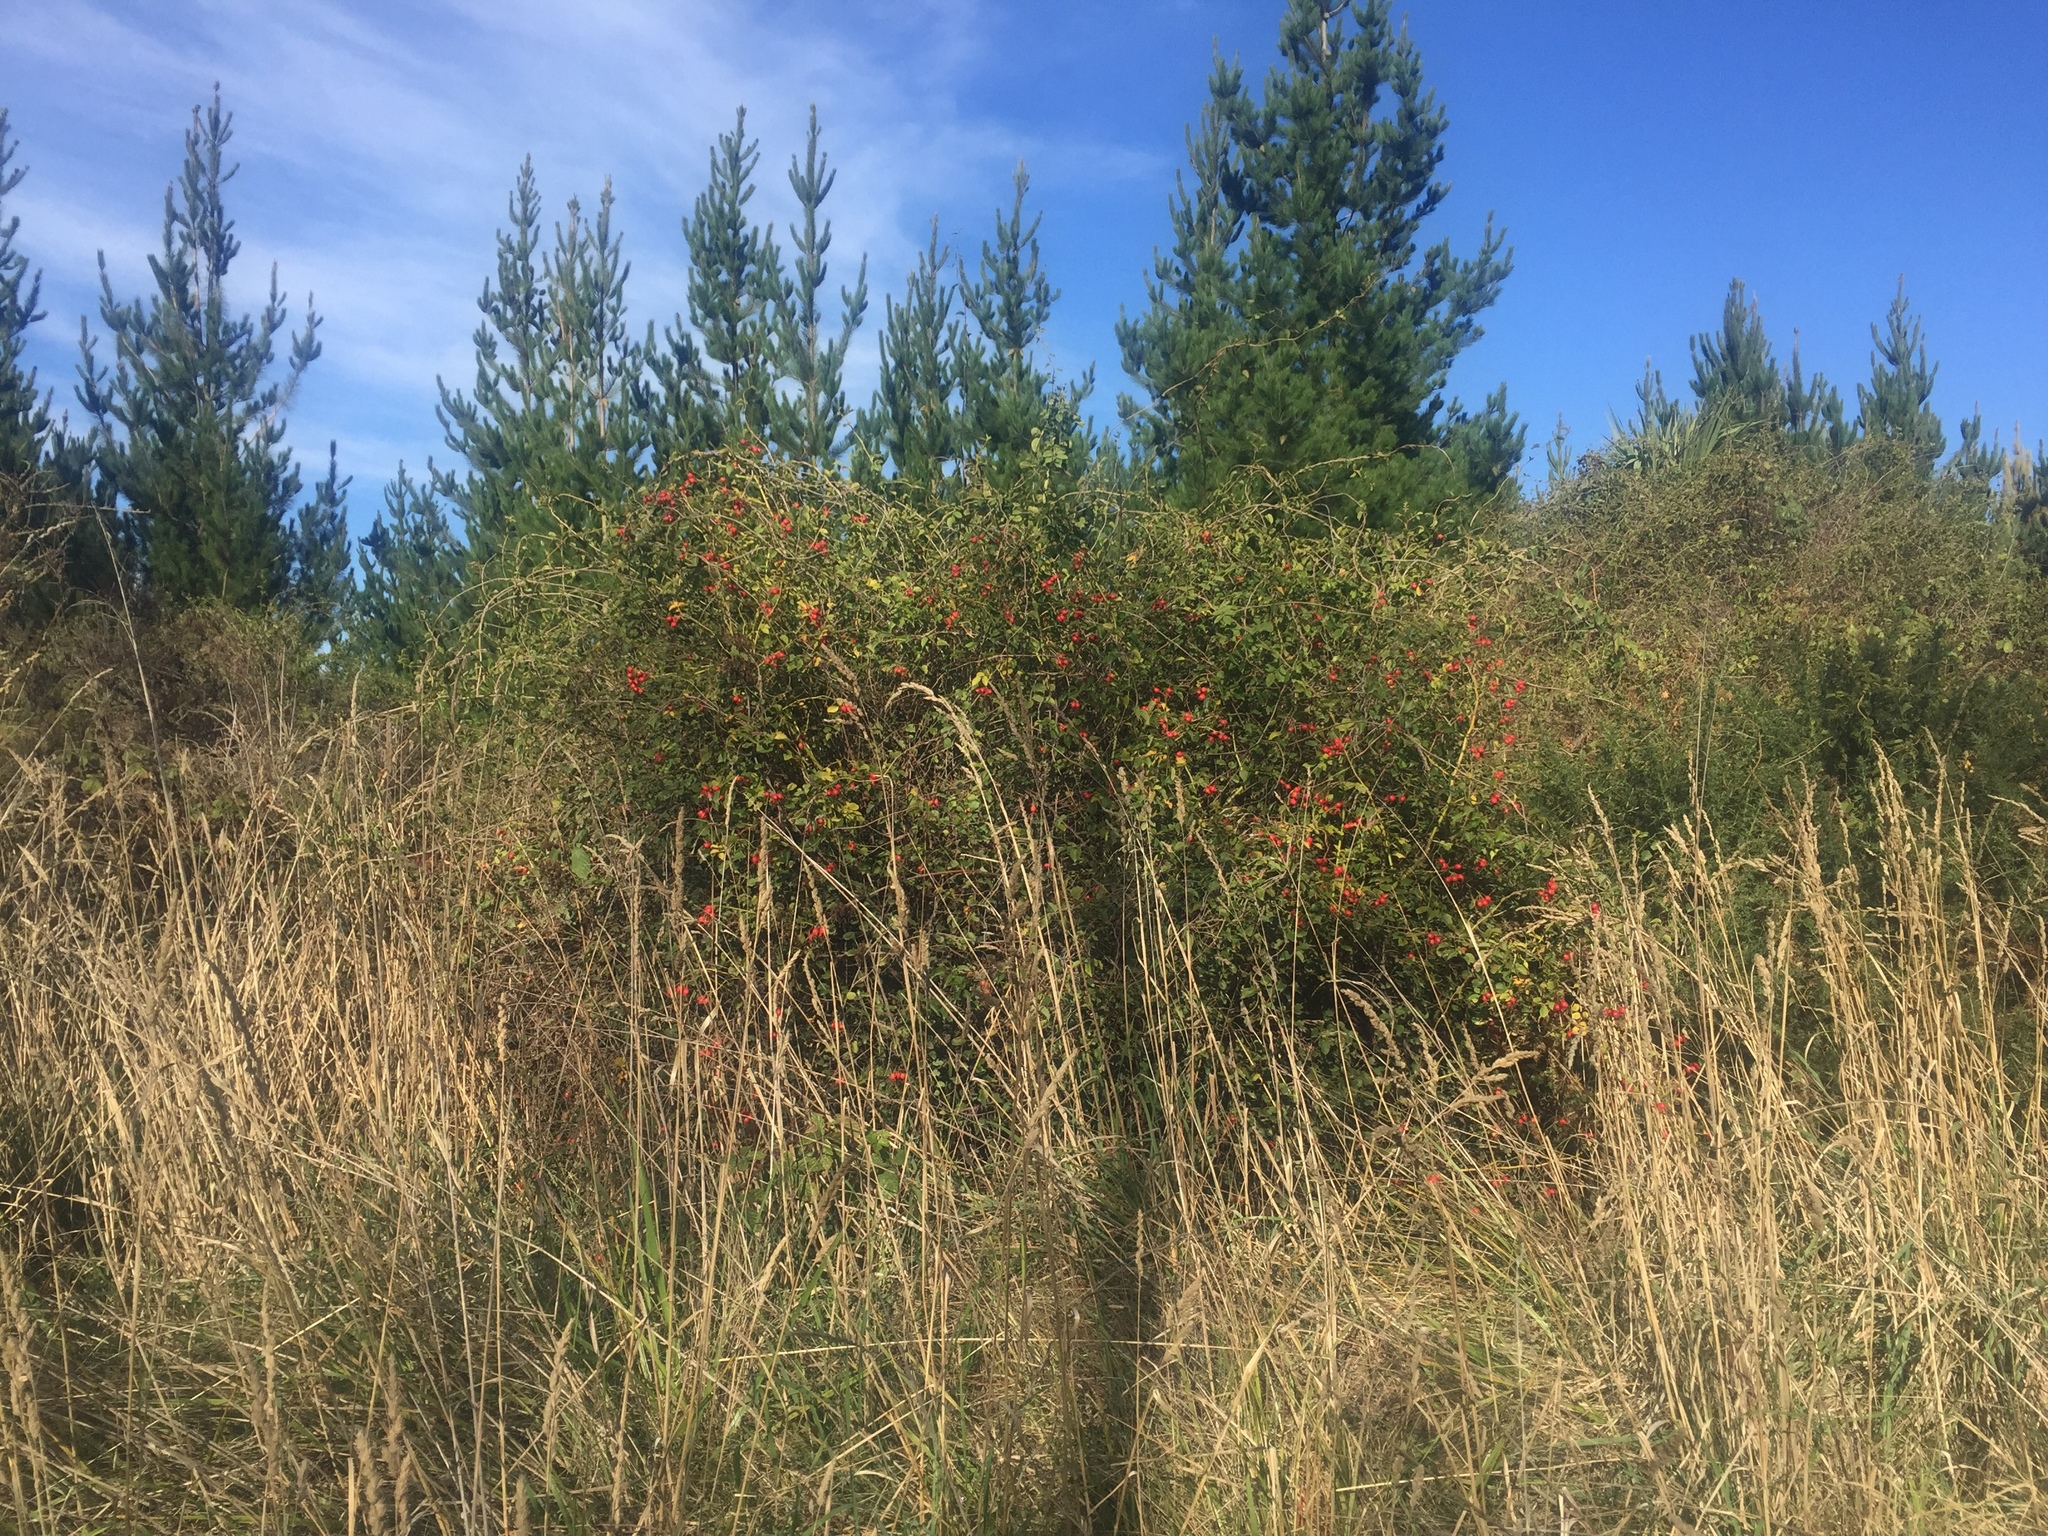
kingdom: Plantae
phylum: Tracheophyta
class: Magnoliopsida
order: Rosales
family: Rosaceae
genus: Rosa
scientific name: Rosa rubiginosa
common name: Sweet-briar
